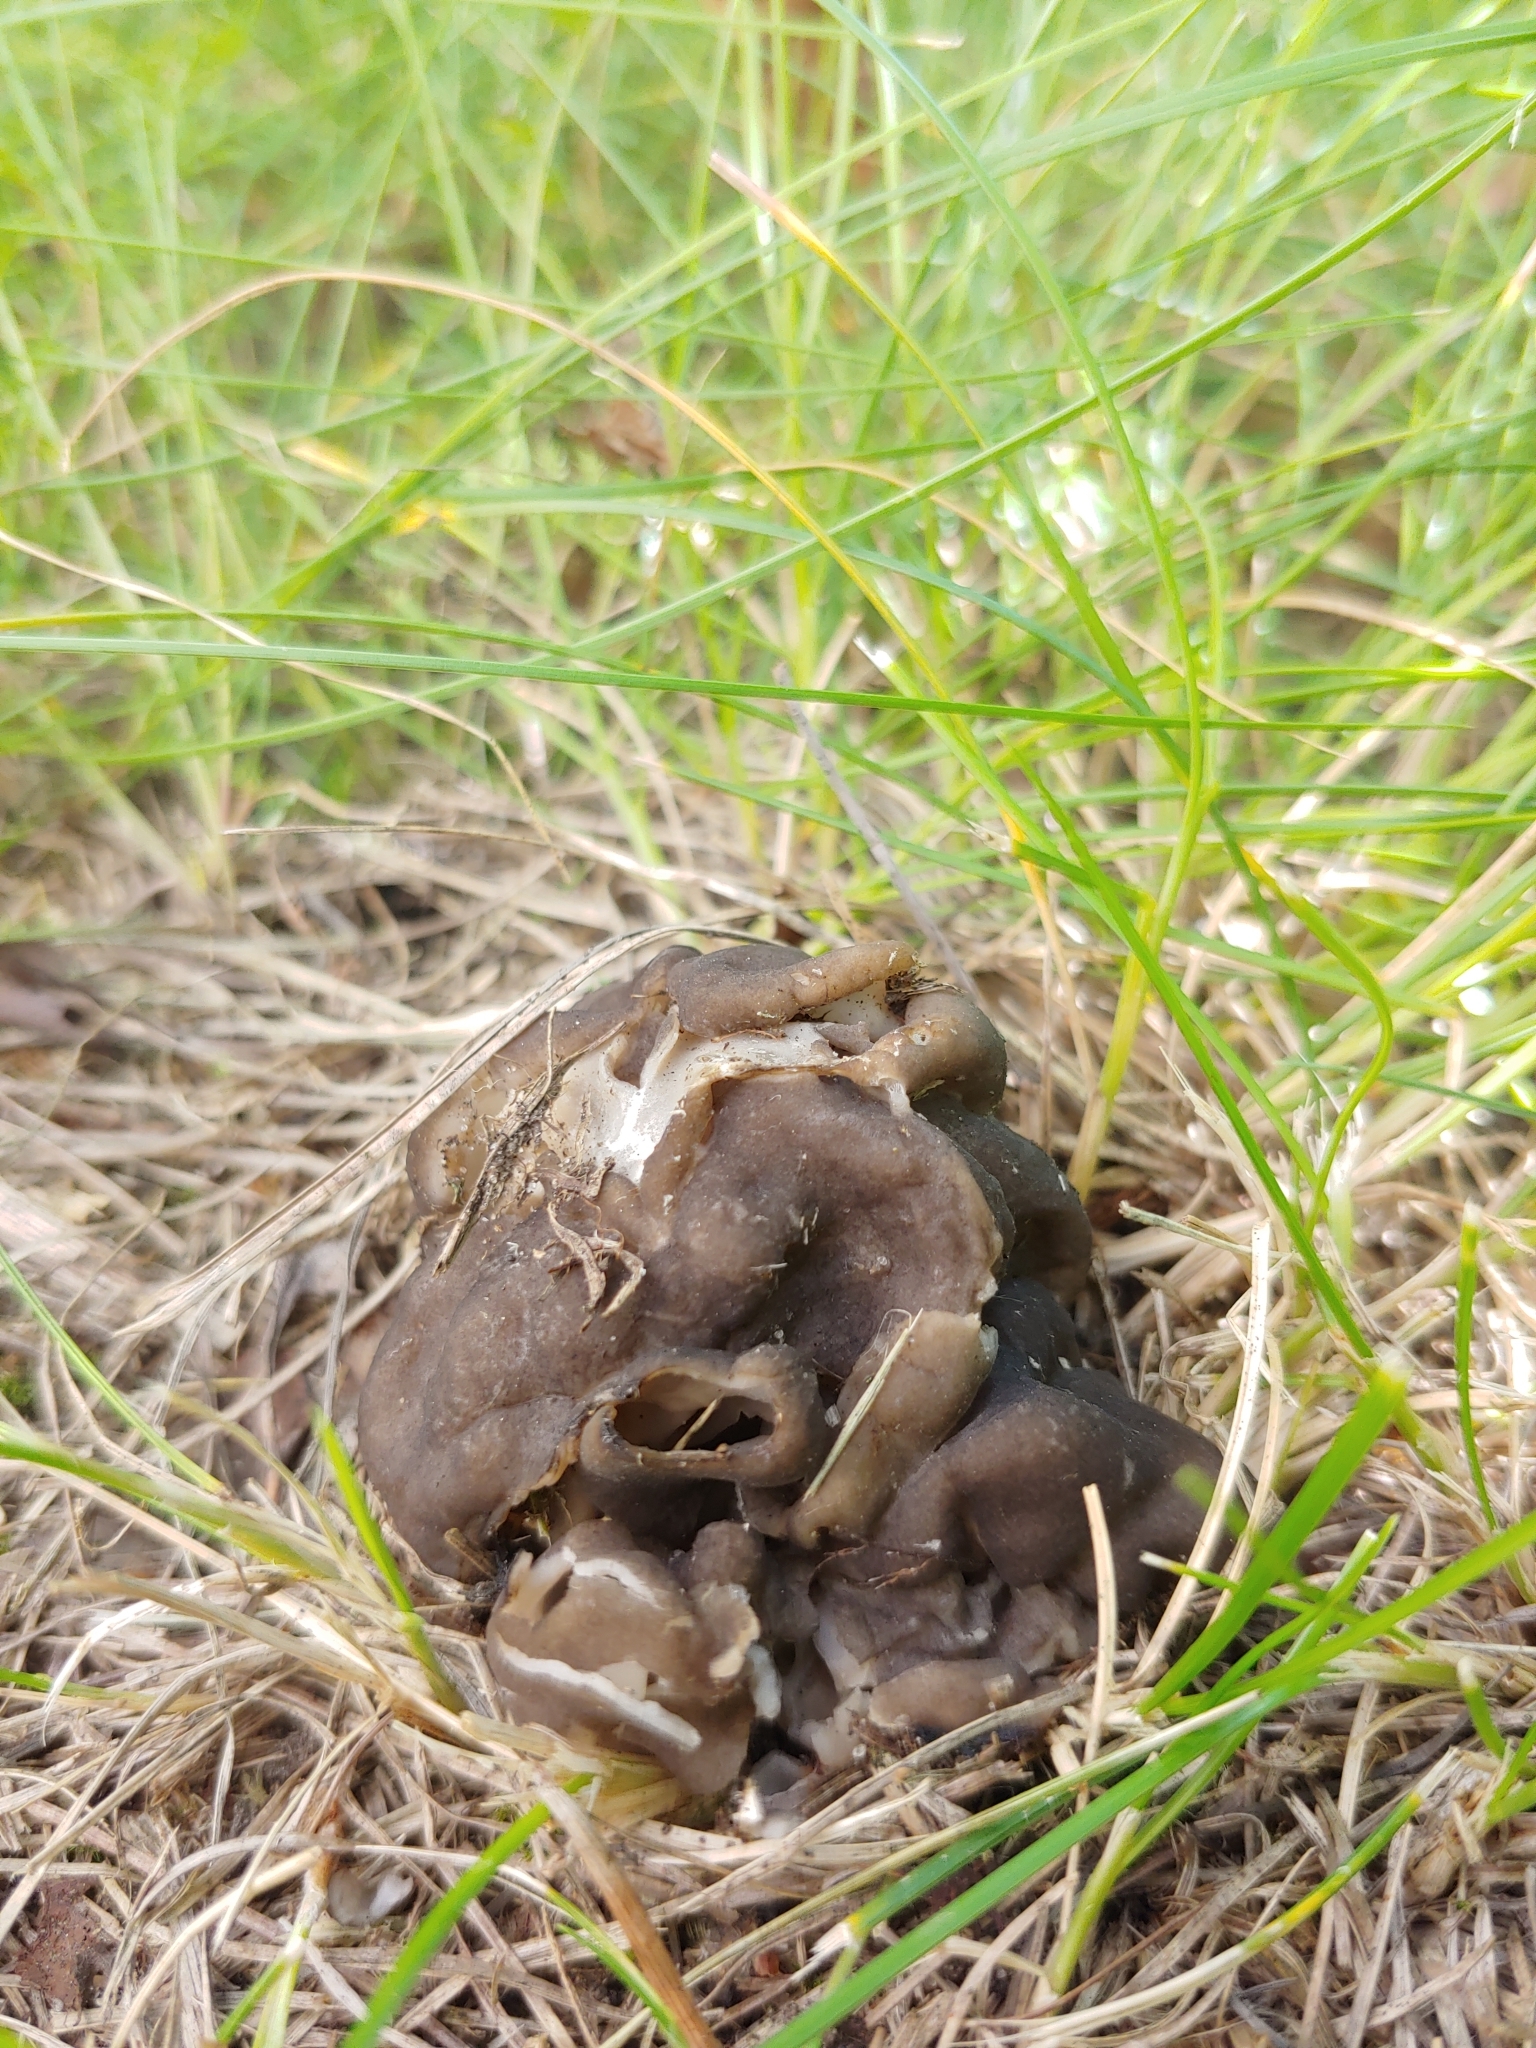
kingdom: Fungi
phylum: Ascomycota
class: Pezizomycetes
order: Pezizales
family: Helvellaceae
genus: Helvella
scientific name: Helvella lacunosa
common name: Elfin saddle
